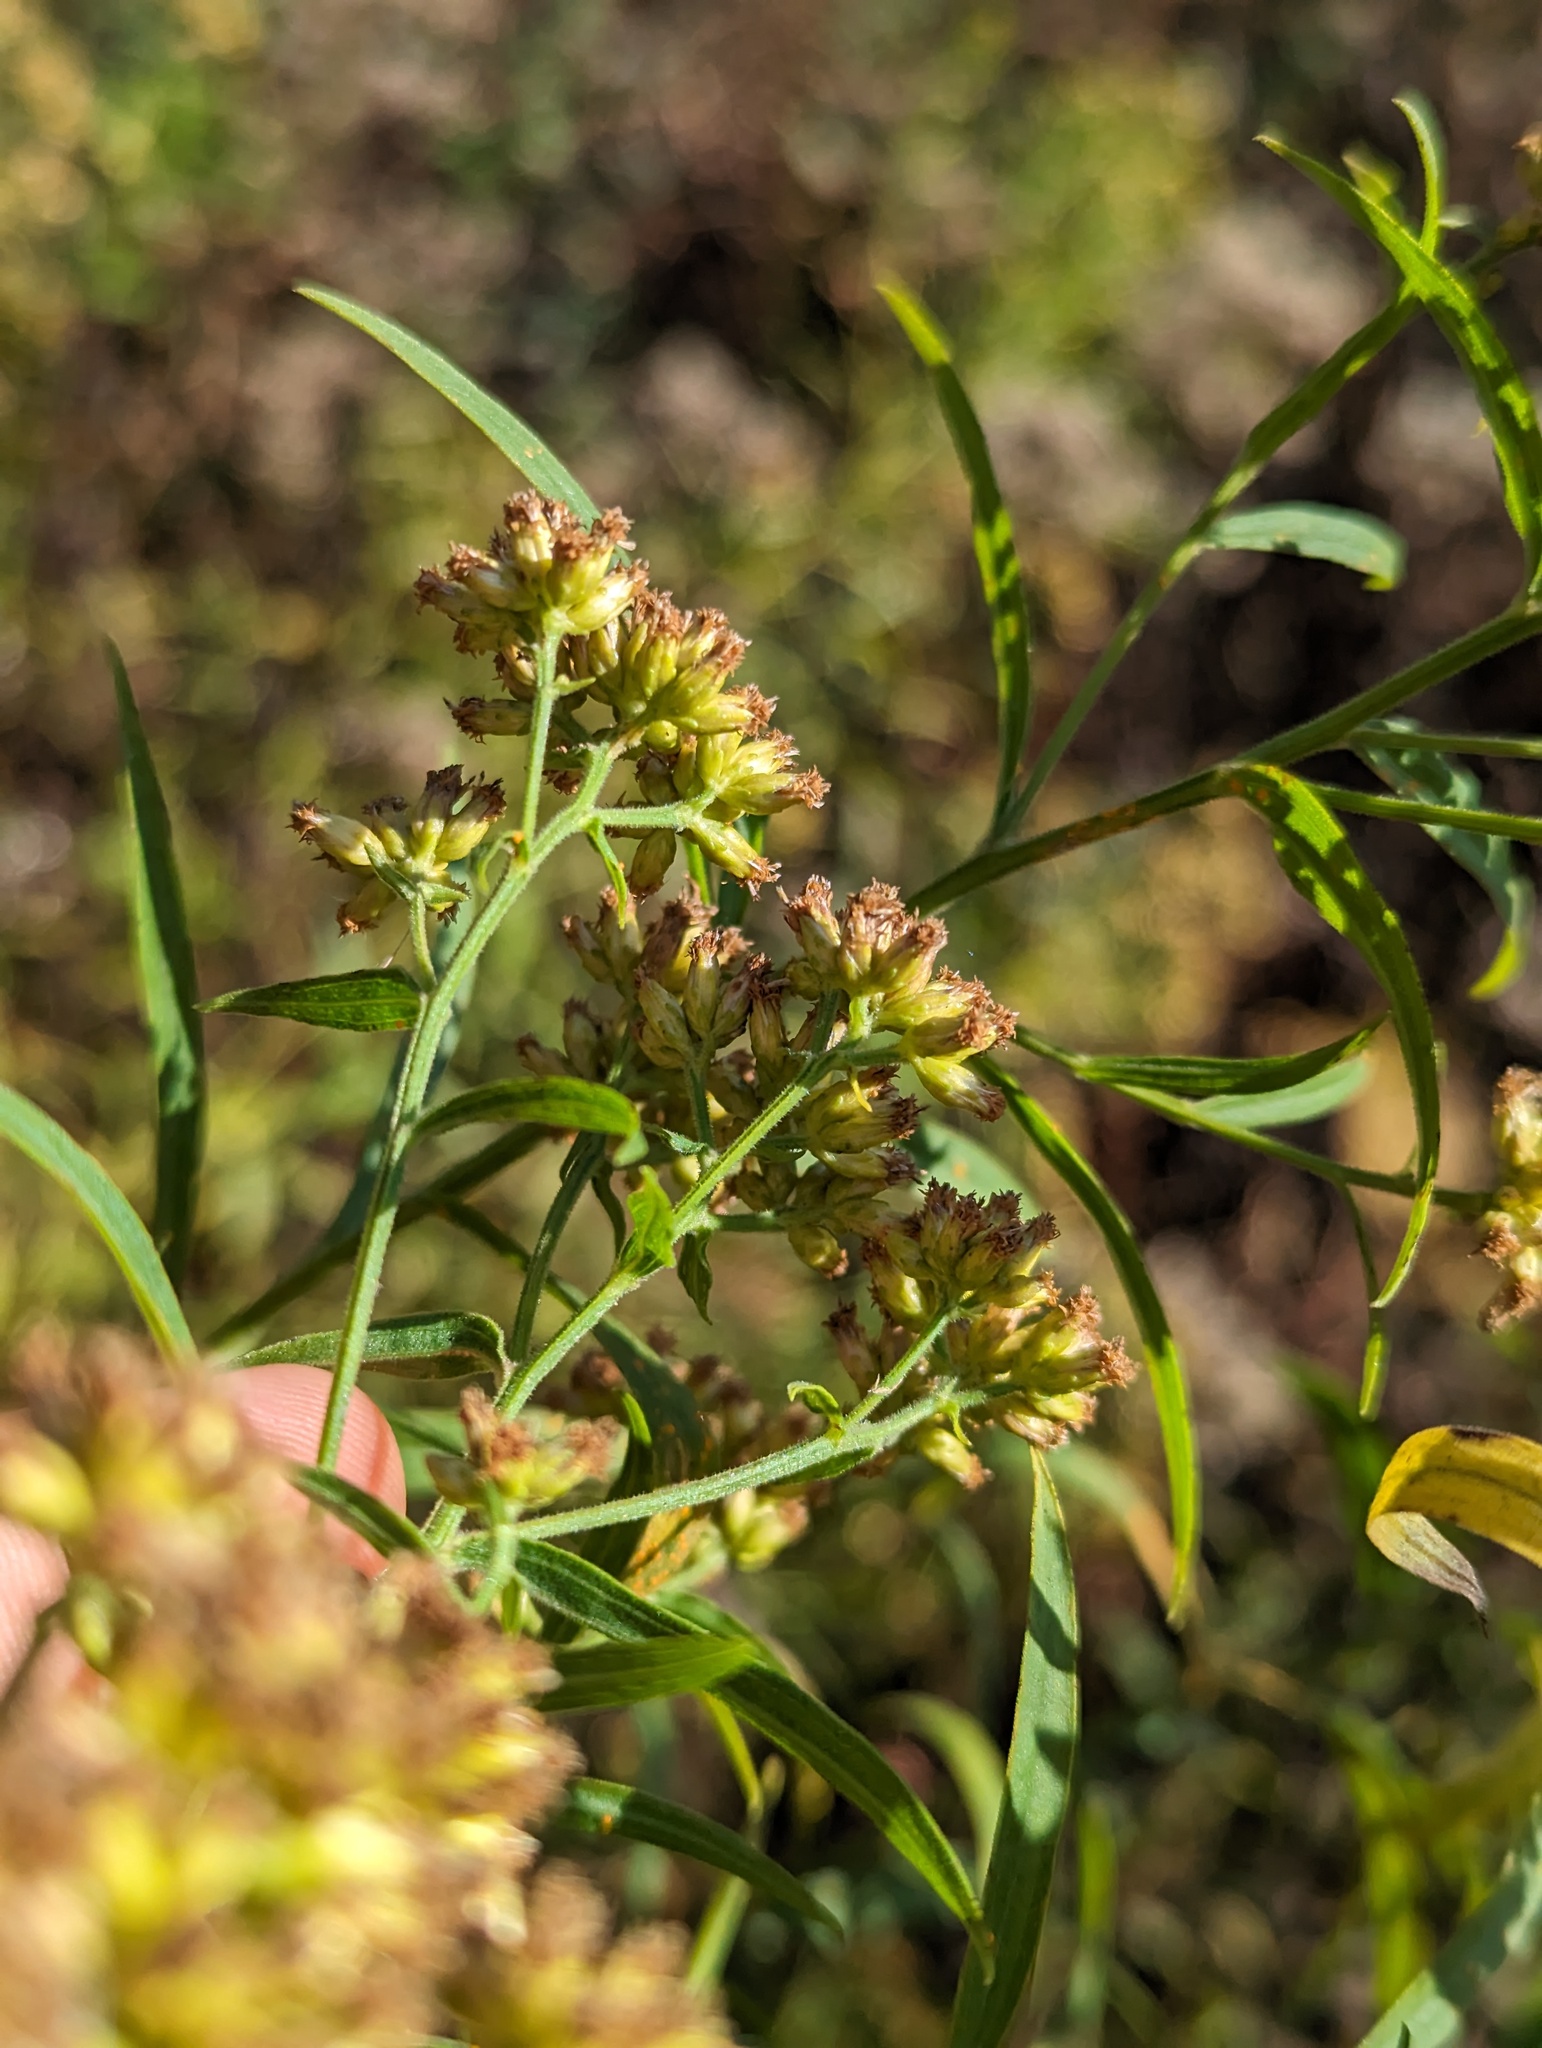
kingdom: Plantae
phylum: Tracheophyta
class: Magnoliopsida
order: Asterales
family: Asteraceae
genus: Euthamia
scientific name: Euthamia graminifolia
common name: Common goldentop
